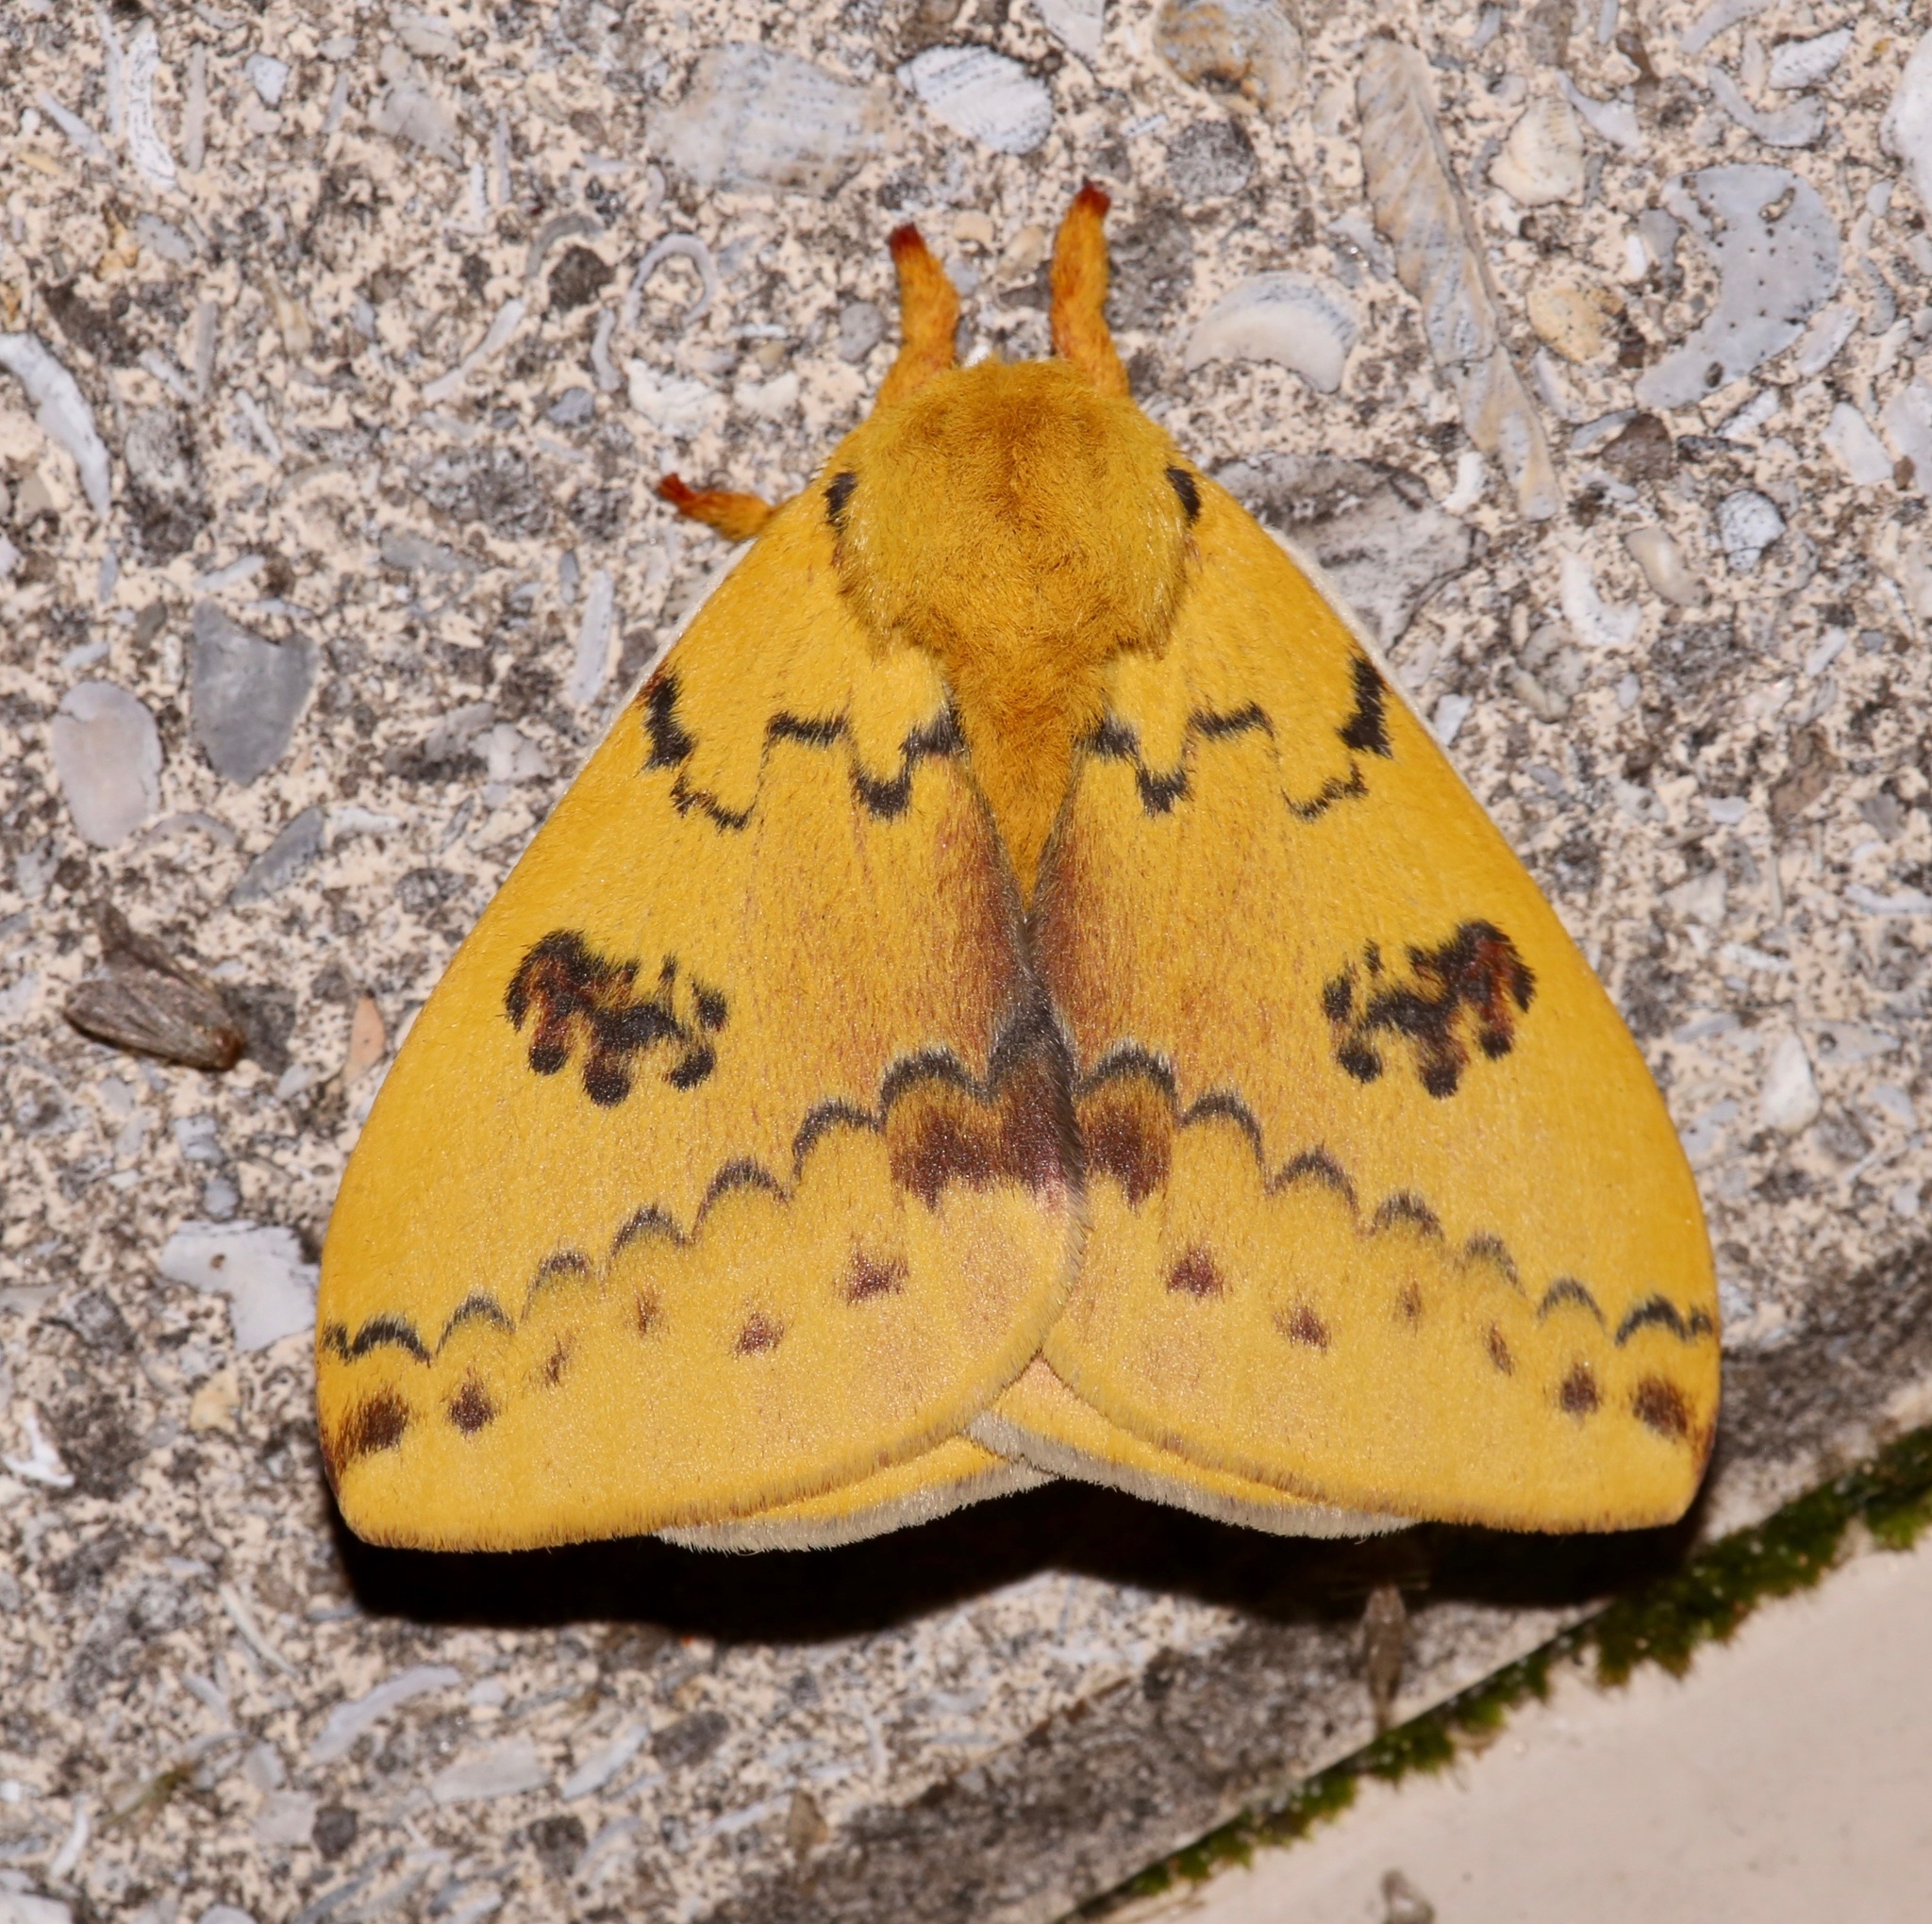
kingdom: Animalia
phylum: Arthropoda
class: Insecta
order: Lepidoptera
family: Saturniidae
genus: Automeris
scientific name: Automeris io
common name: Io moth
